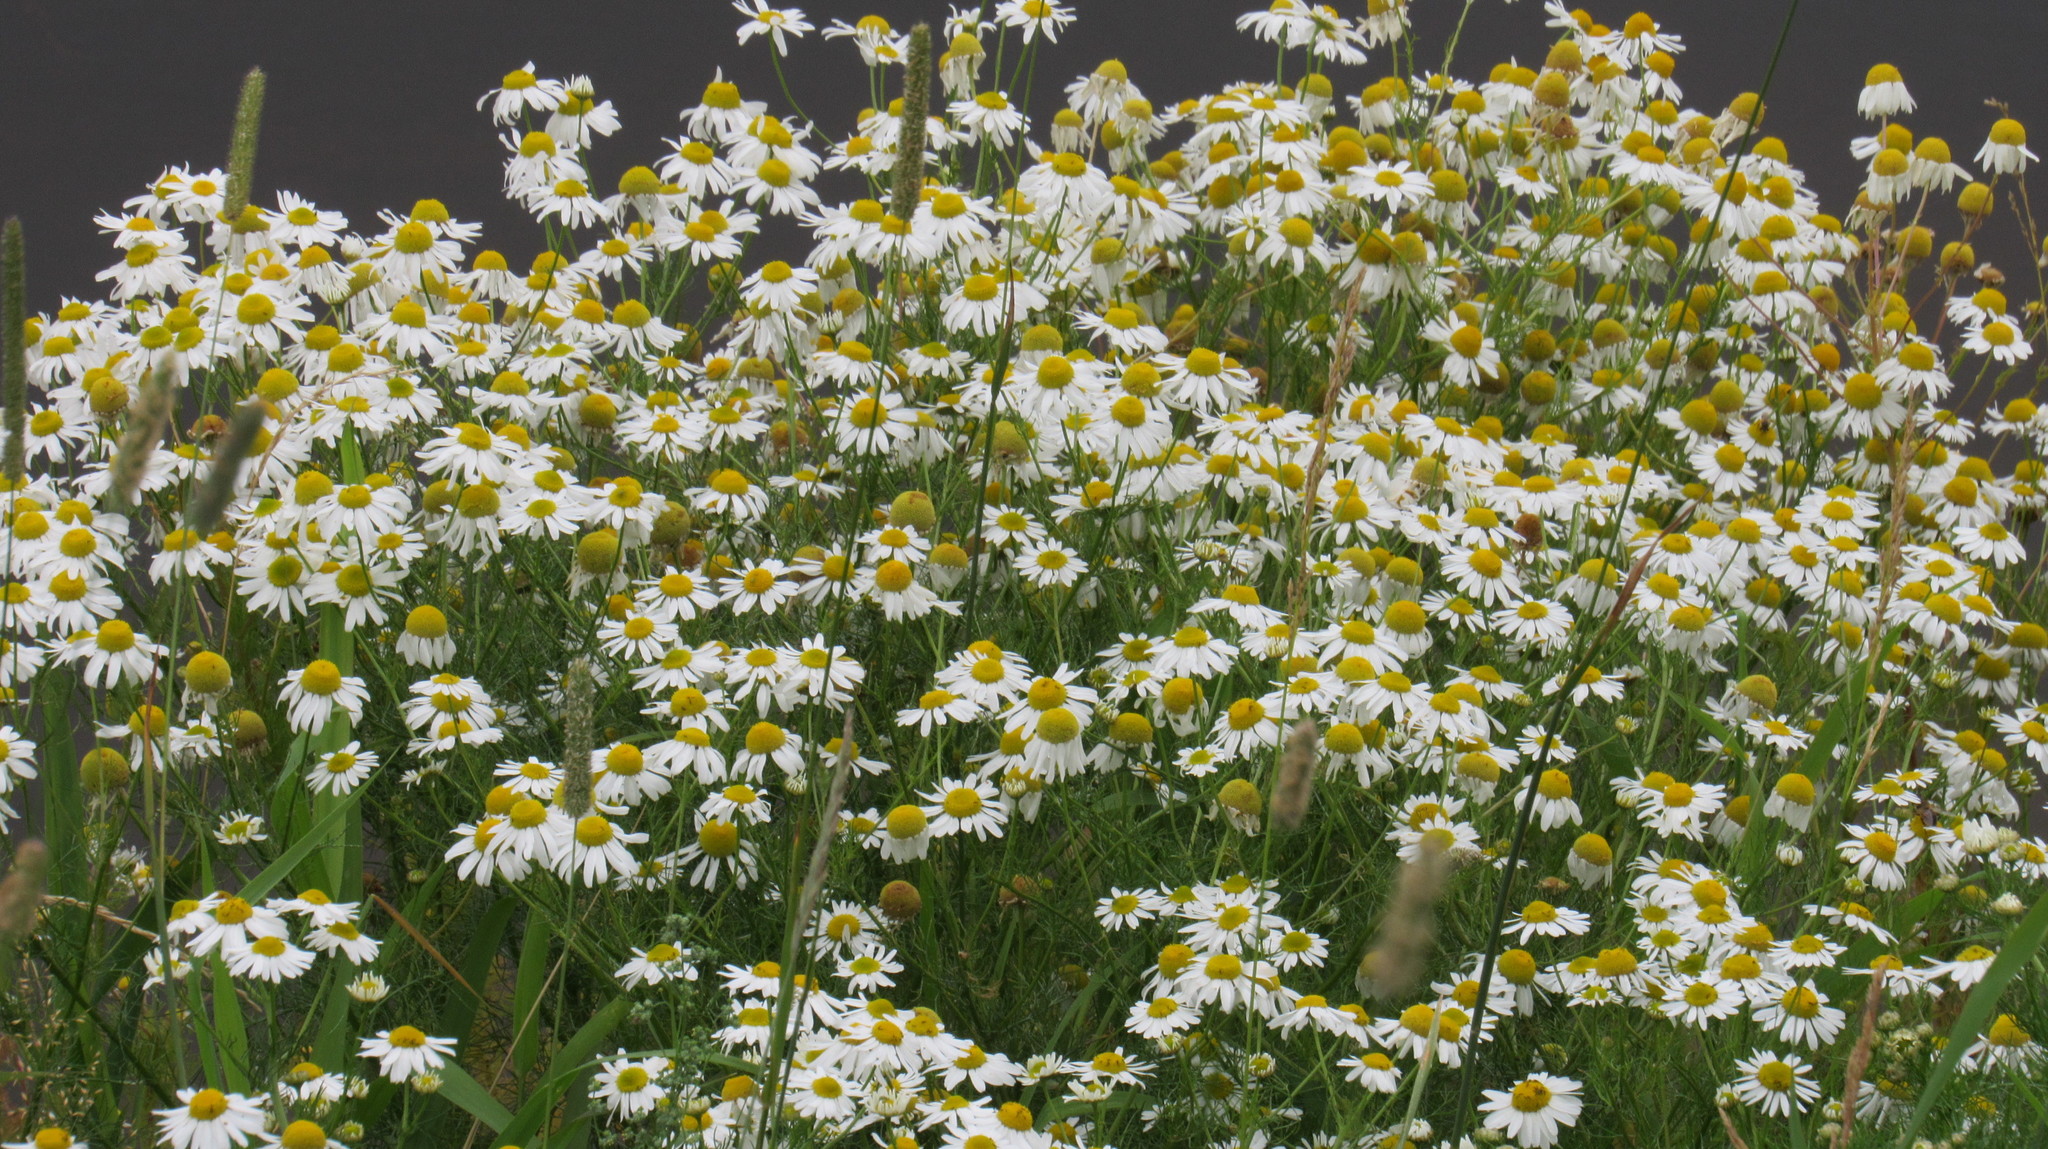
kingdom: Plantae
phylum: Tracheophyta
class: Magnoliopsida
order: Asterales
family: Asteraceae
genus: Tripleurospermum
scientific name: Tripleurospermum inodorum
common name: Scentless mayweed
